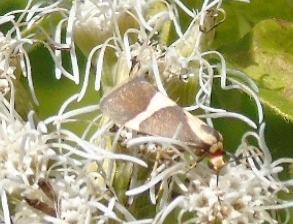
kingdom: Animalia
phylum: Arthropoda
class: Insecta
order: Lepidoptera
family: Erebidae
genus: Cisthene
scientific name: Cisthene
